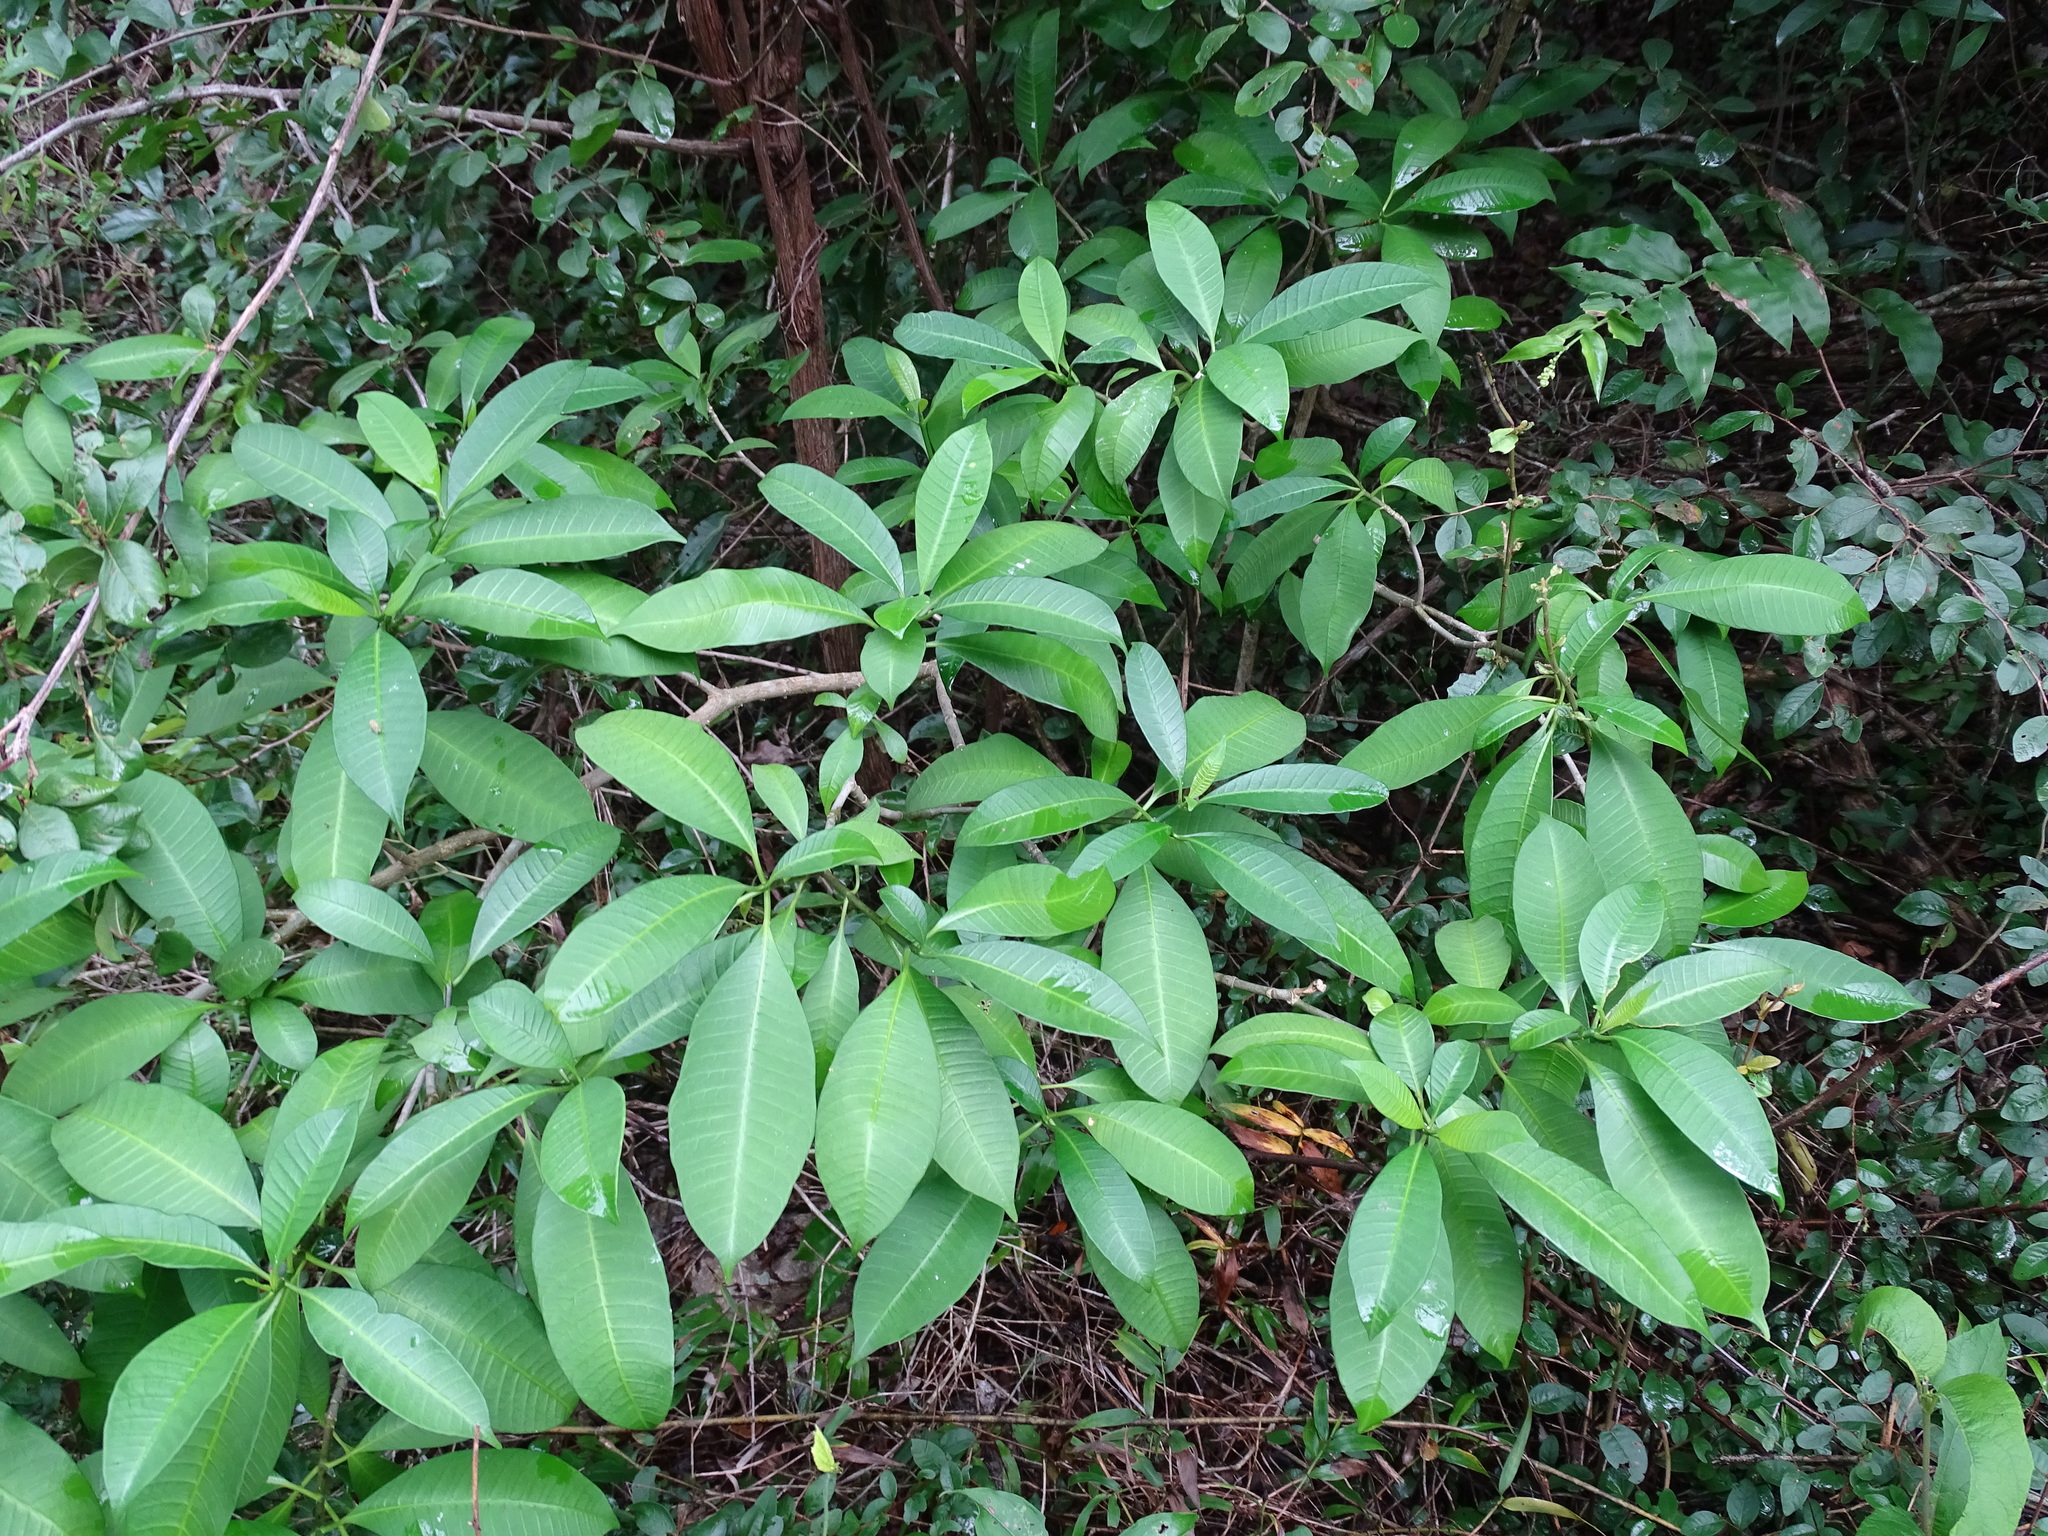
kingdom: Plantae
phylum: Tracheophyta
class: Magnoliopsida
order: Gentianales
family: Apocynaceae
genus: Tabernaemontana
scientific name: Tabernaemontana amygdalifolia
